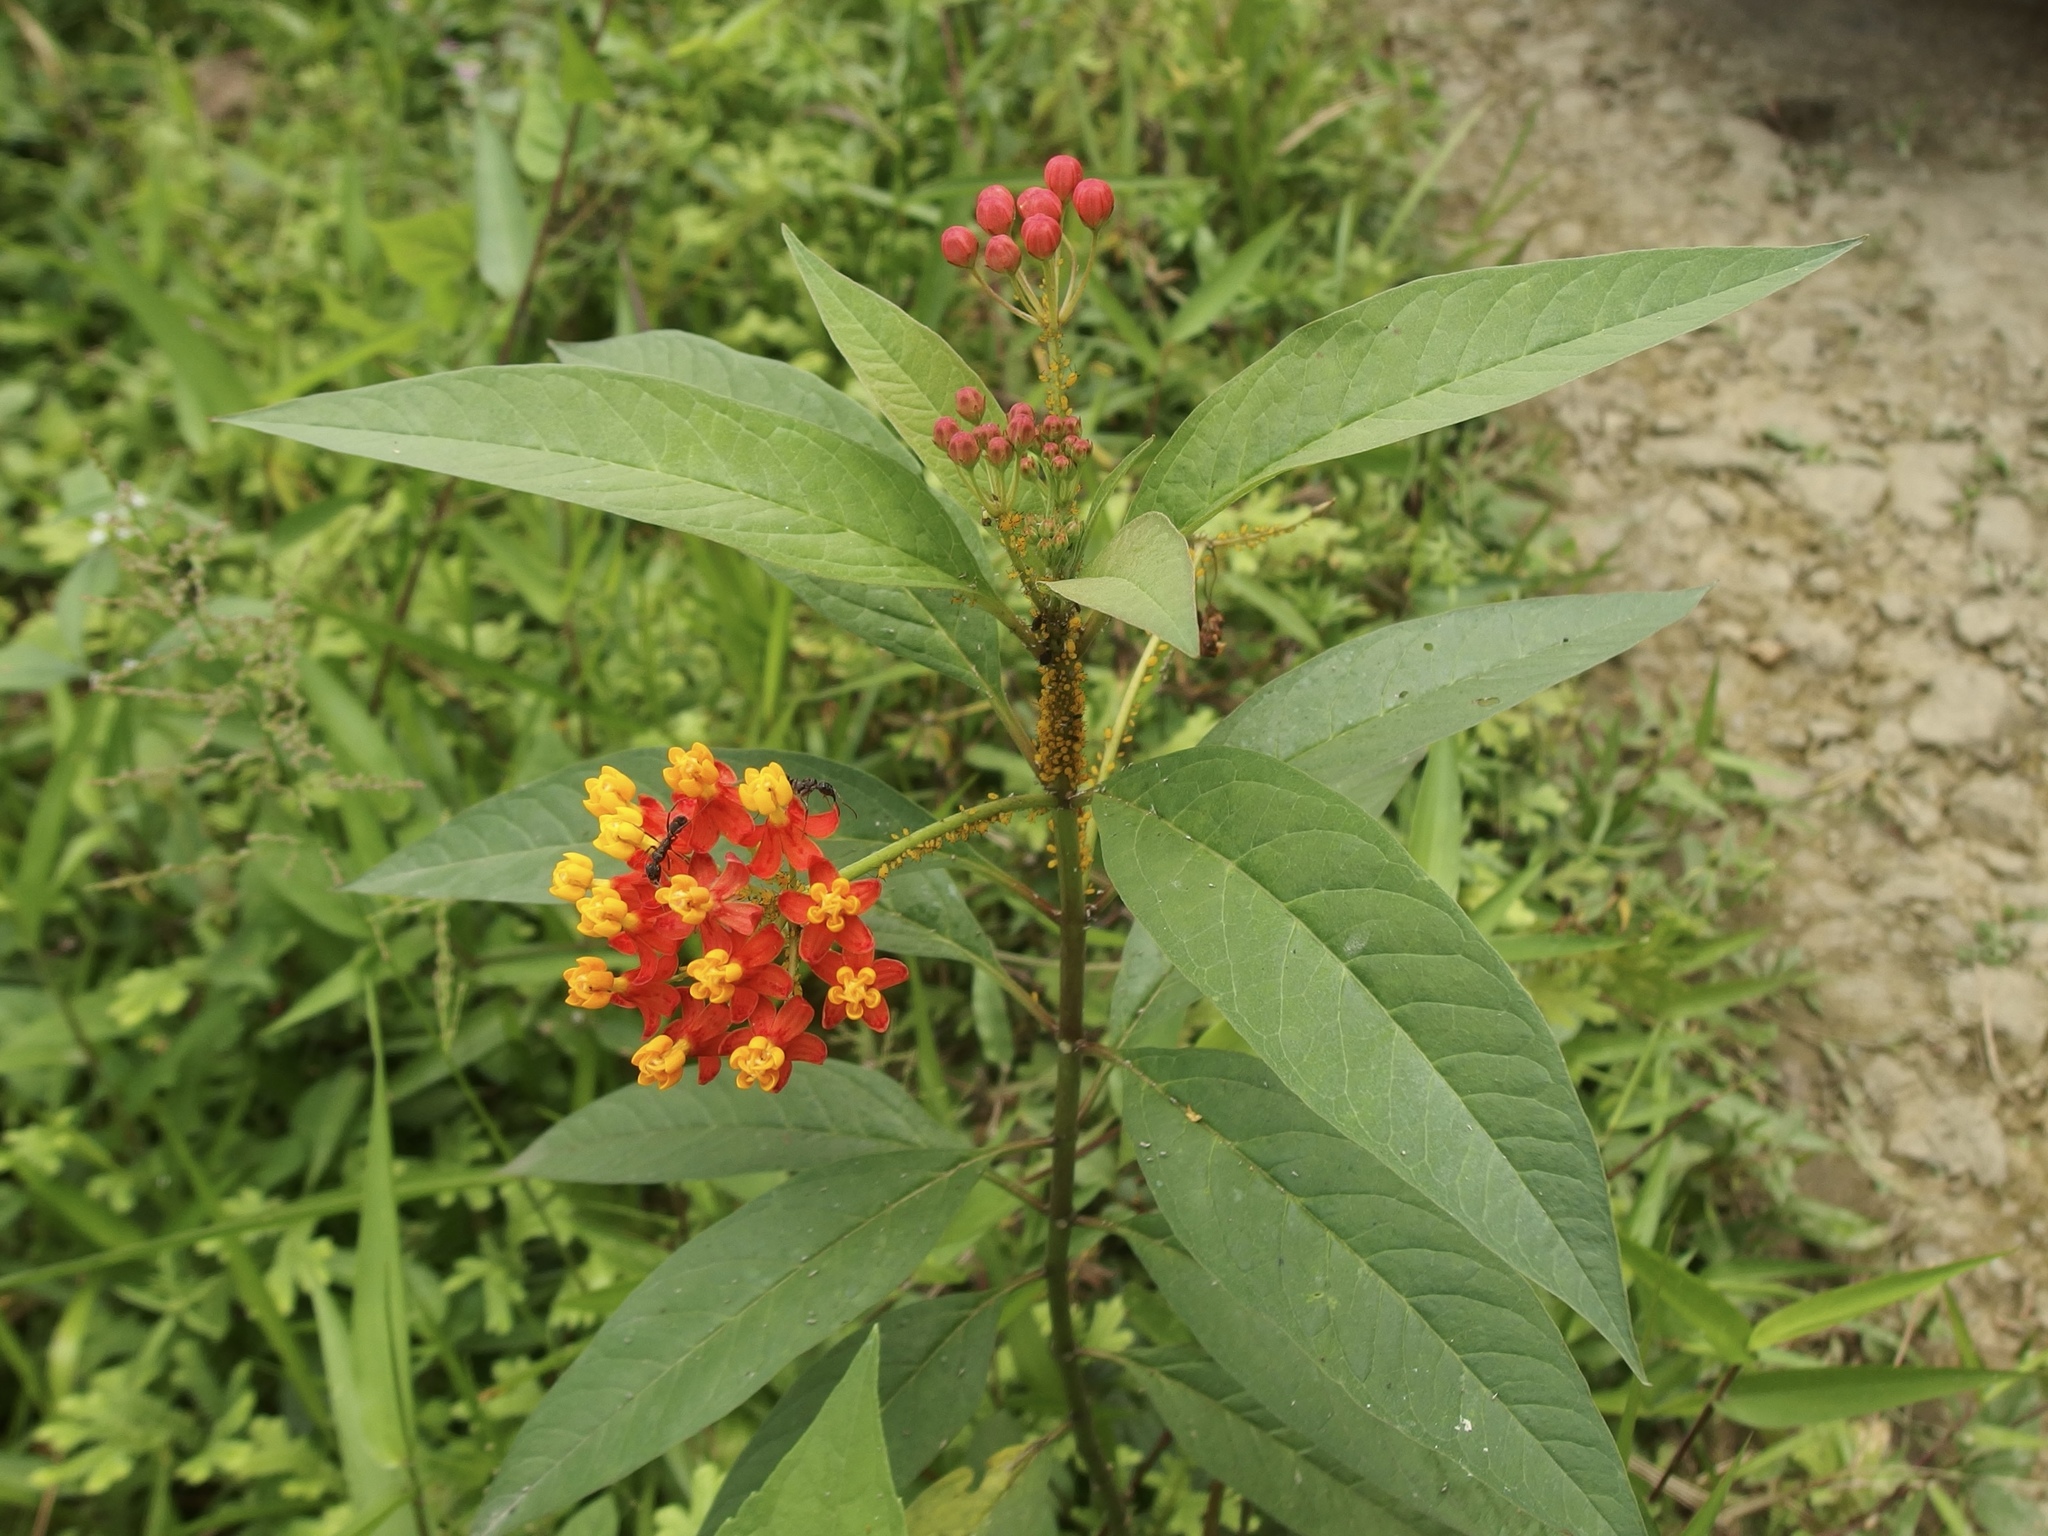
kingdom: Plantae
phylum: Tracheophyta
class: Magnoliopsida
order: Gentianales
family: Apocynaceae
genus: Asclepias
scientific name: Asclepias curassavica
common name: Bloodflower
